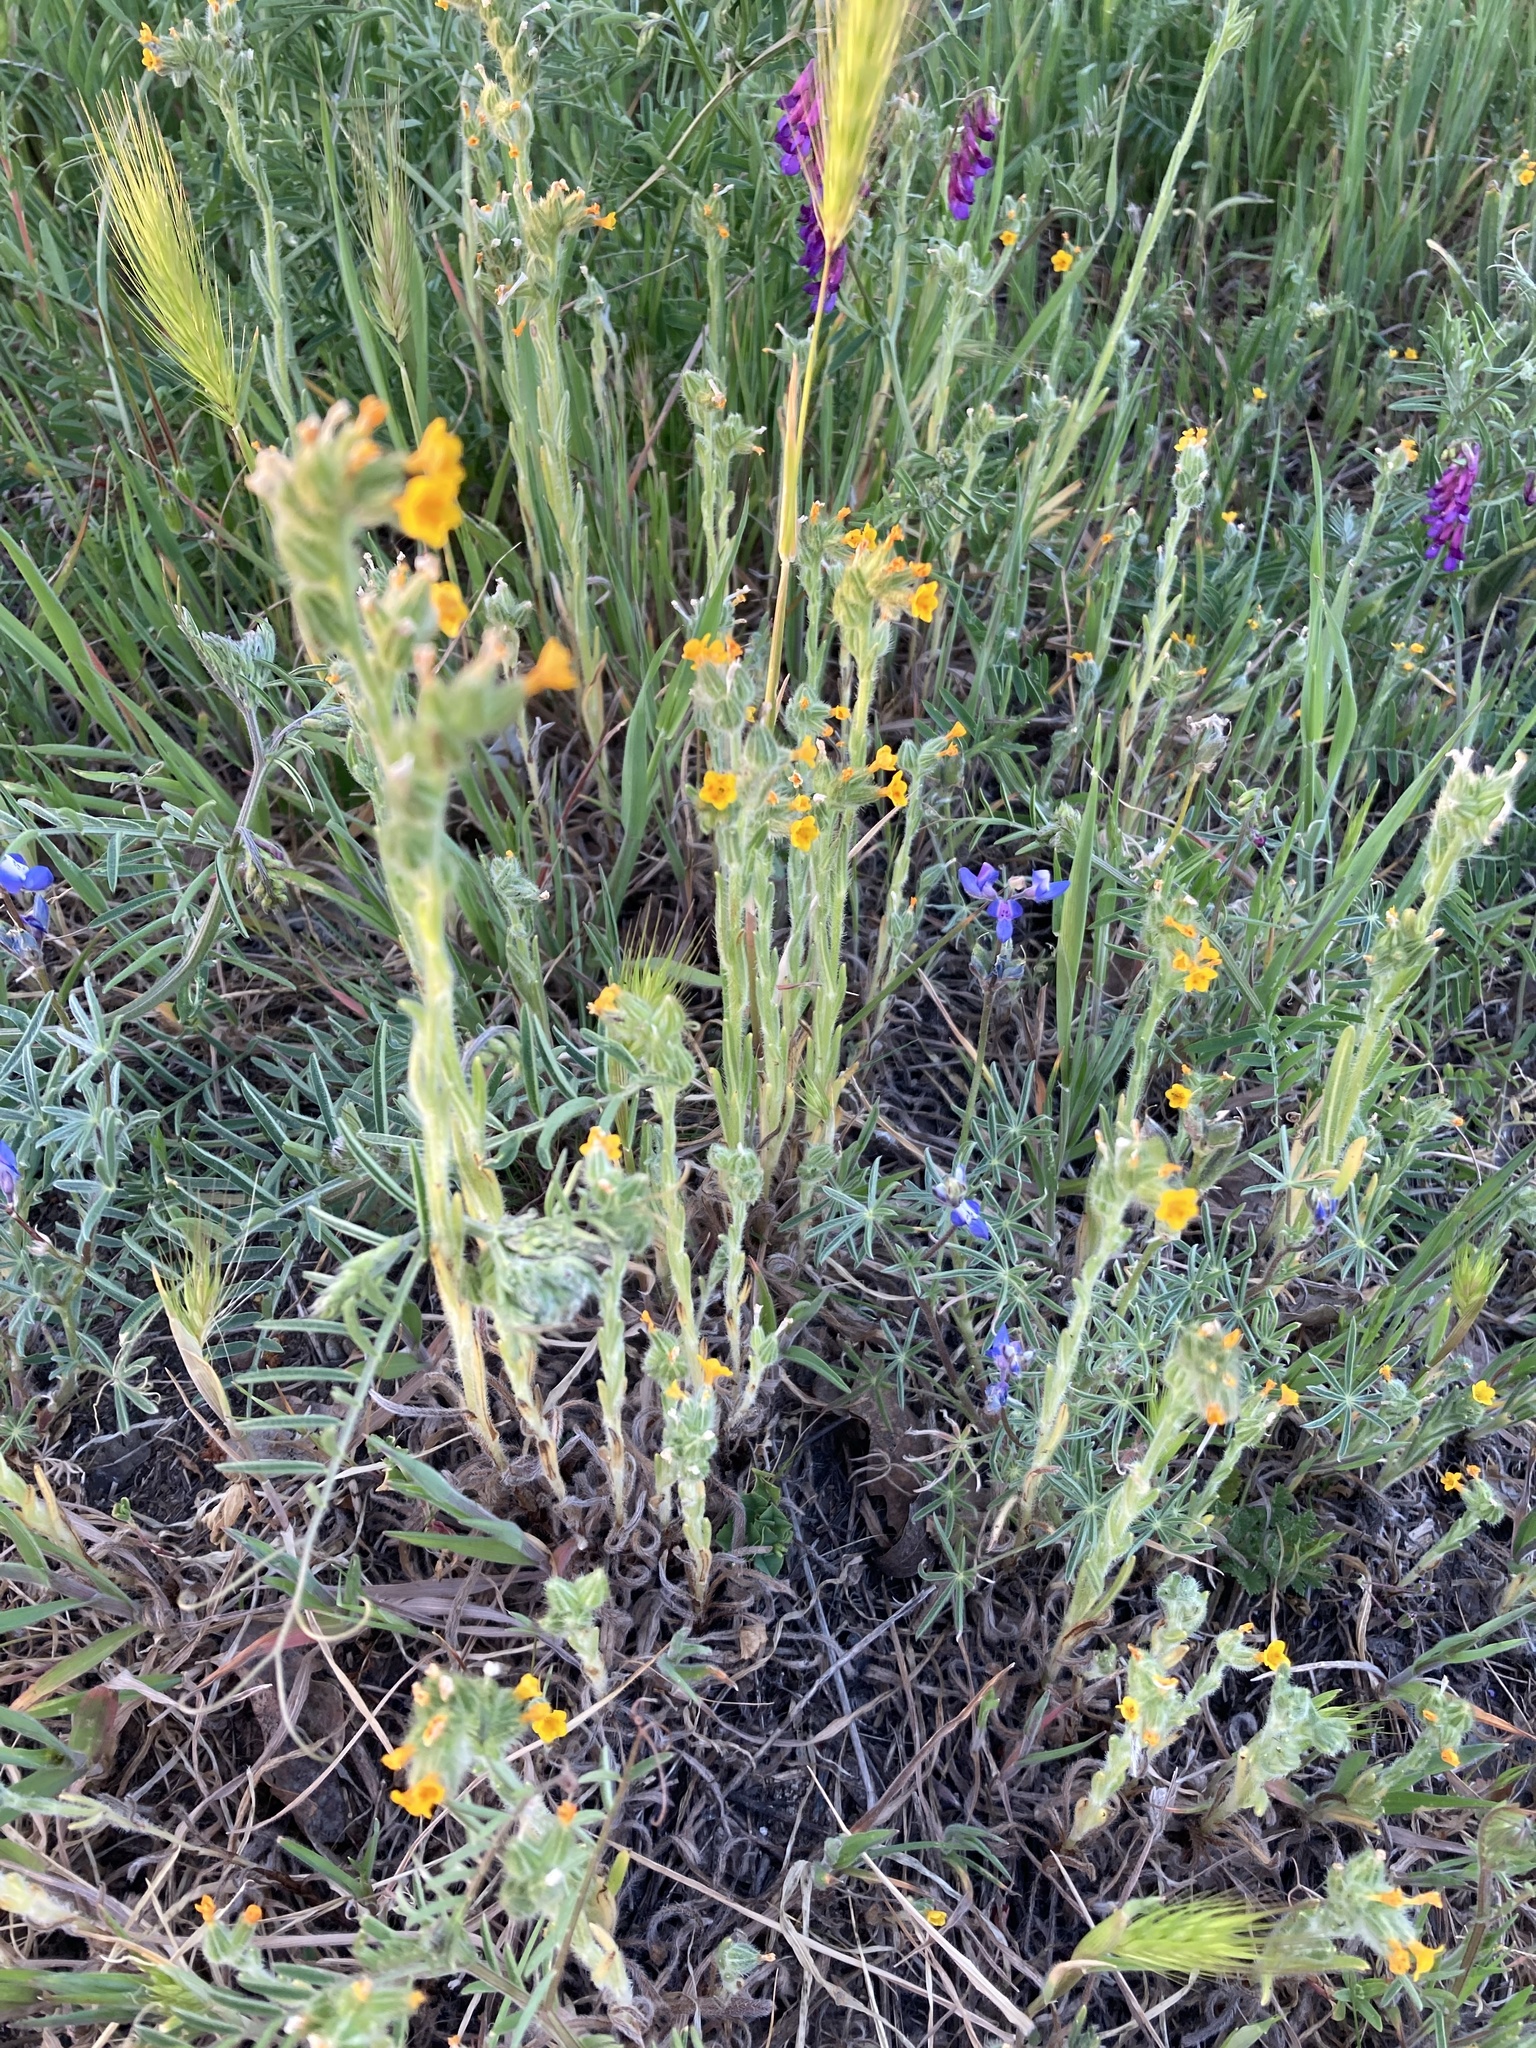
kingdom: Plantae
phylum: Tracheophyta
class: Magnoliopsida
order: Boraginales
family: Boraginaceae
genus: Amsinckia
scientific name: Amsinckia menziesii
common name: Menzies' fiddleneck
